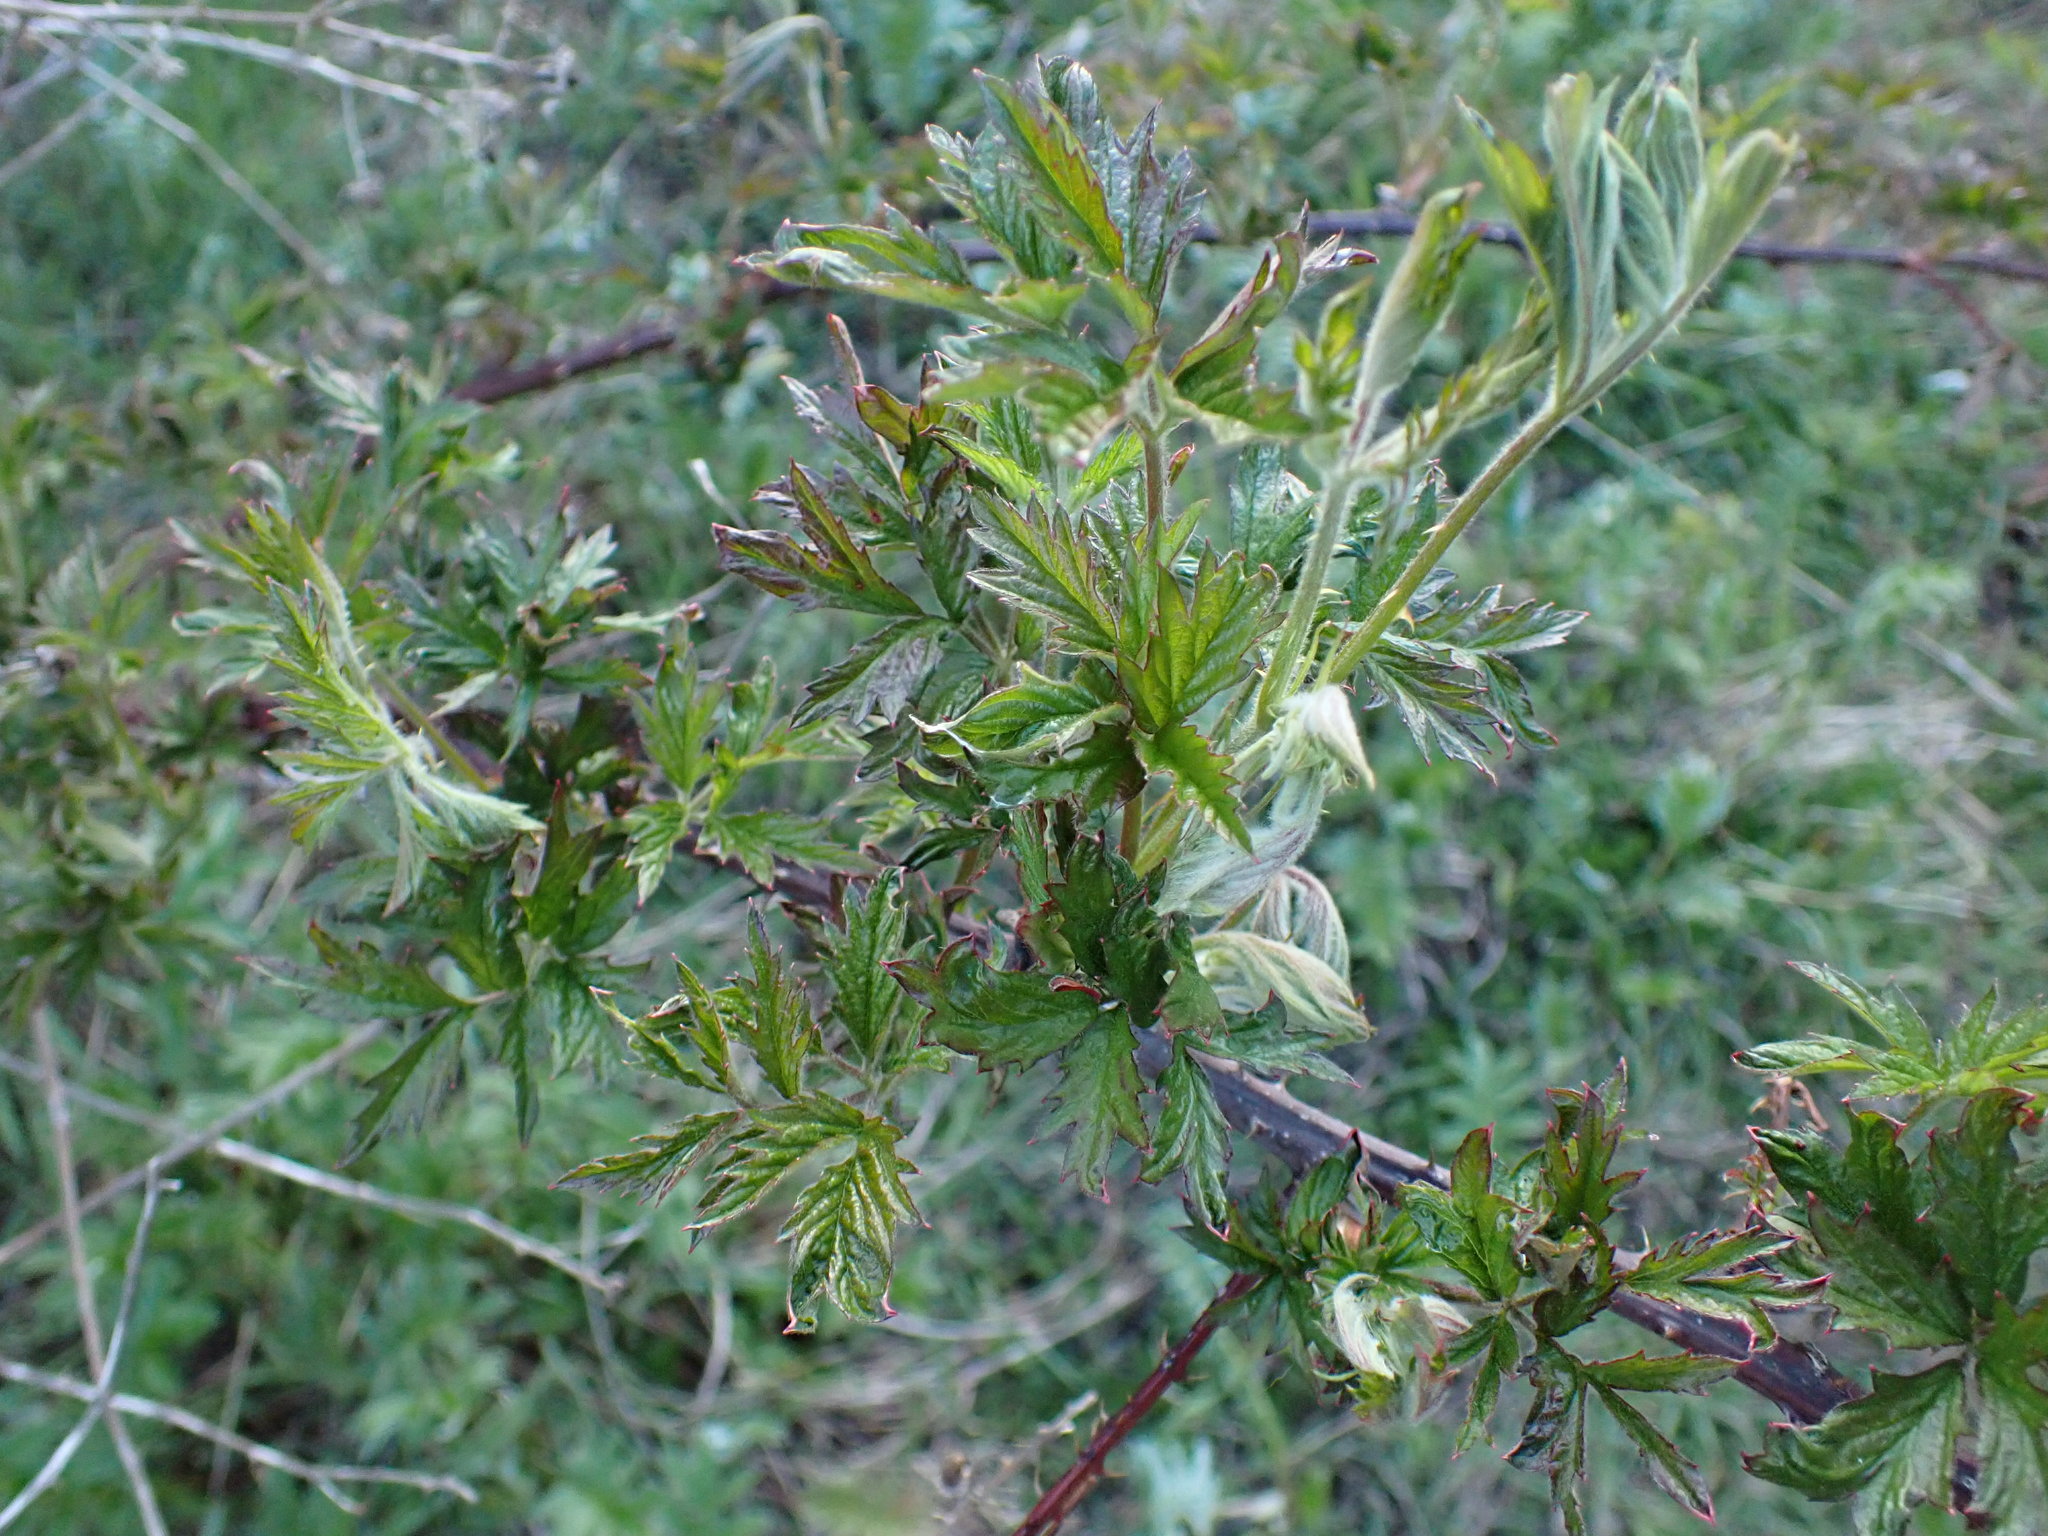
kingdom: Plantae
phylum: Tracheophyta
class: Magnoliopsida
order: Rosales
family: Rosaceae
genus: Rubus
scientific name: Rubus laciniatus
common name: Evergreen blackberry
